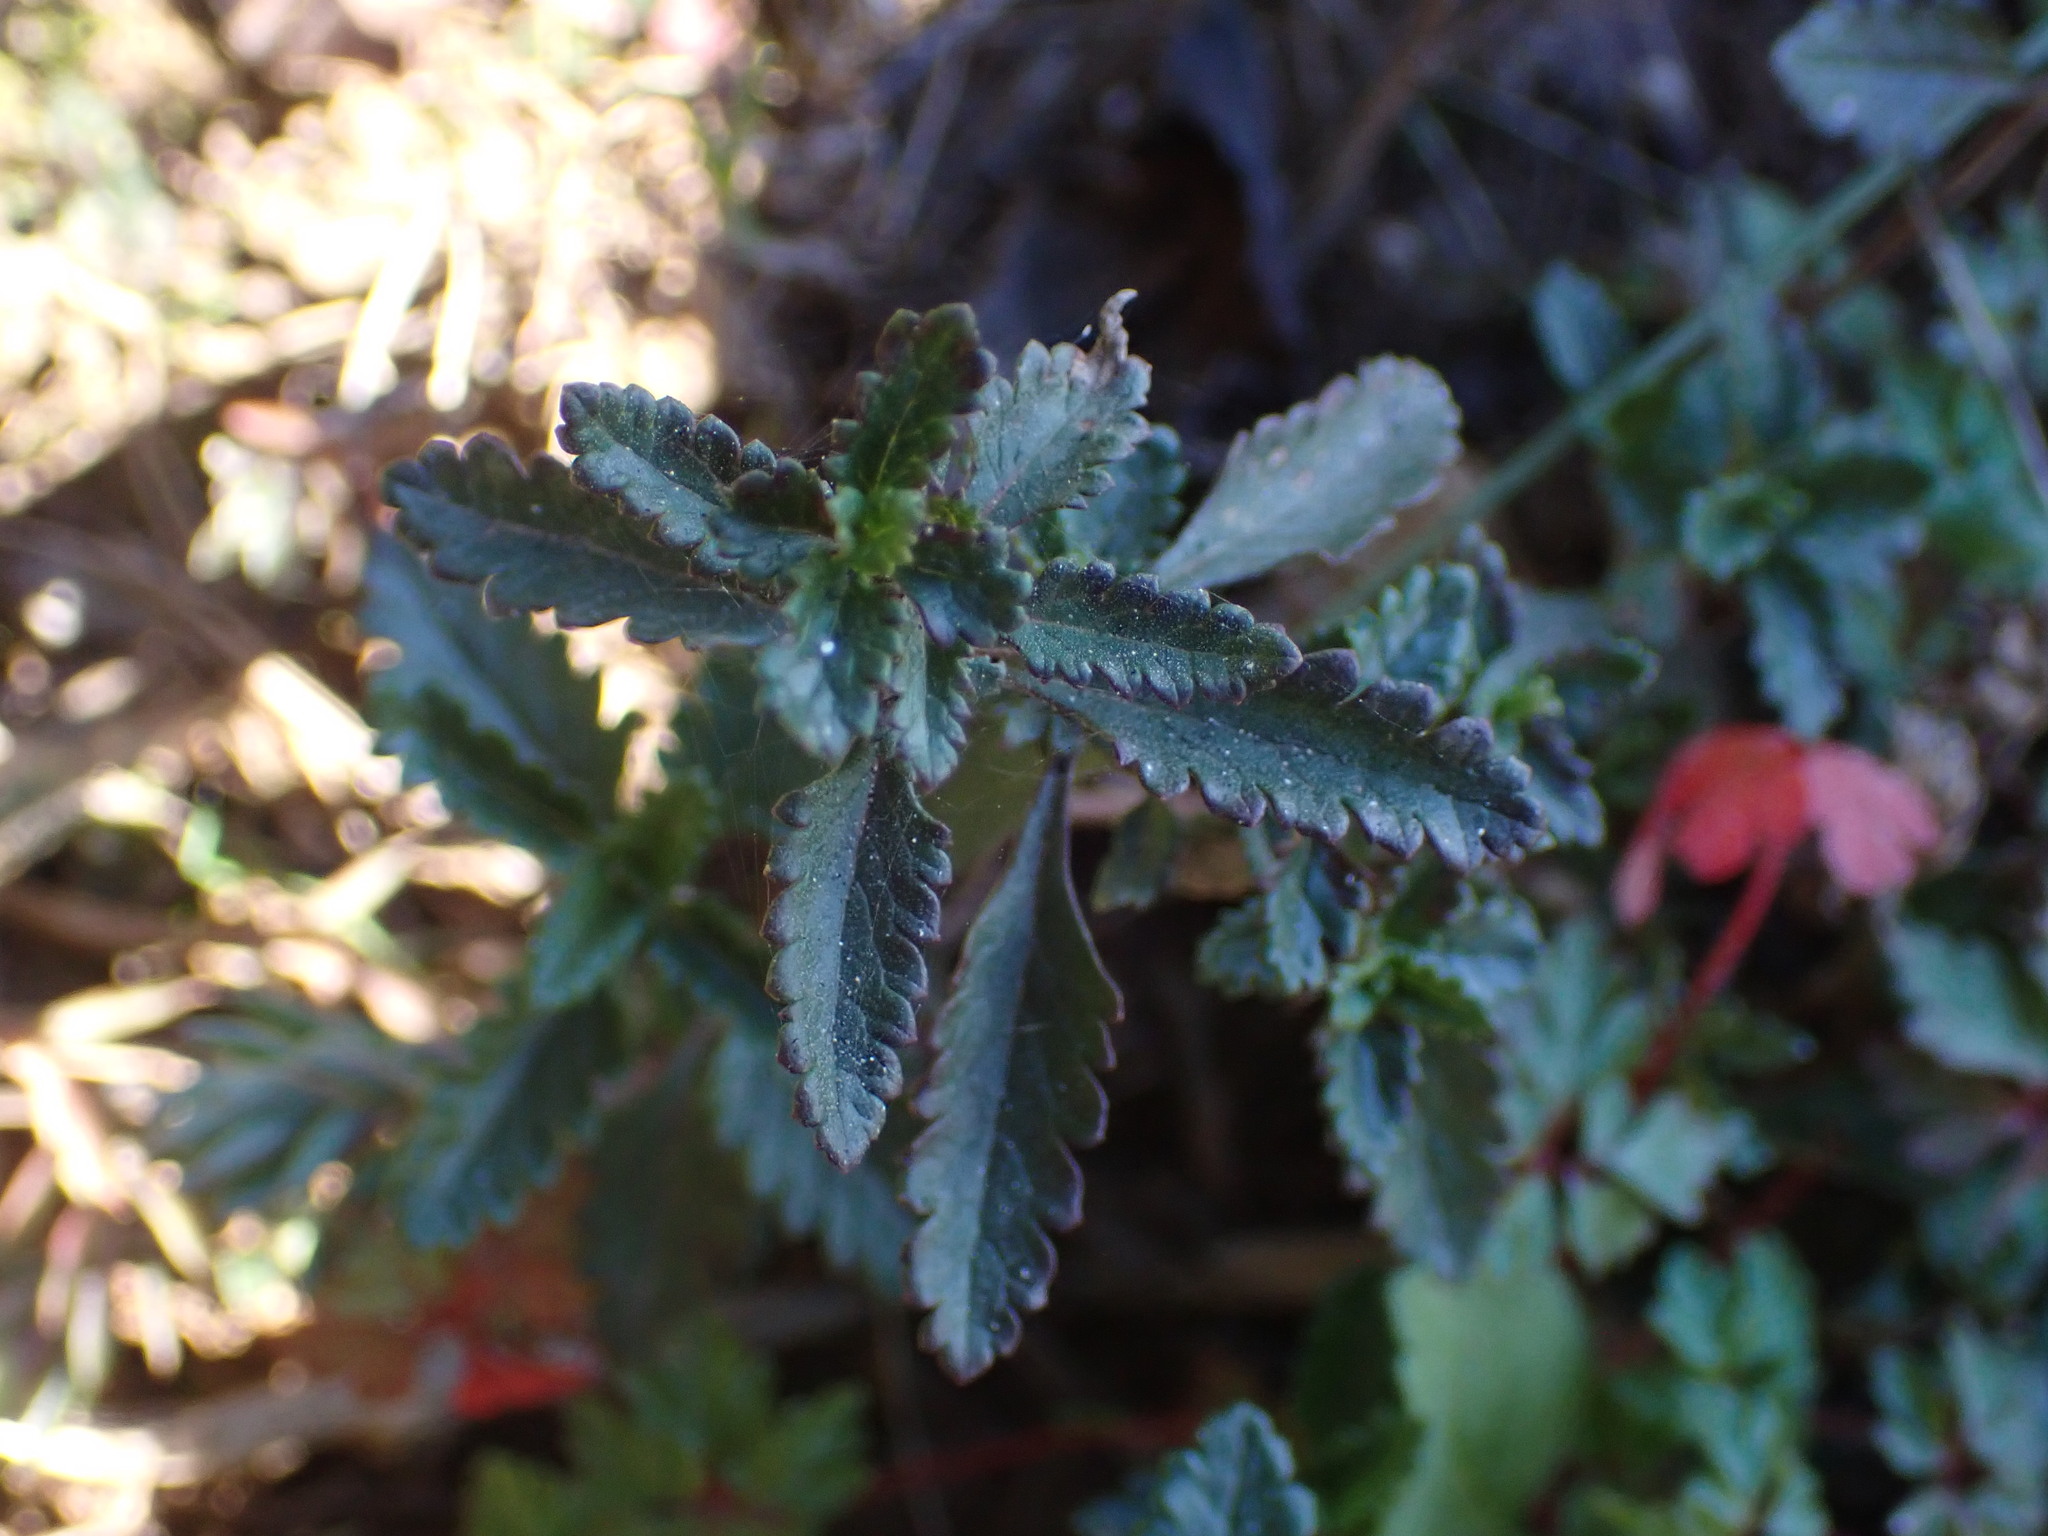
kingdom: Plantae
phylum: Tracheophyta
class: Magnoliopsida
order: Lamiales
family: Lamiaceae
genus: Teucrium
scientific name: Teucrium chamaedrys
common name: Wall germander
